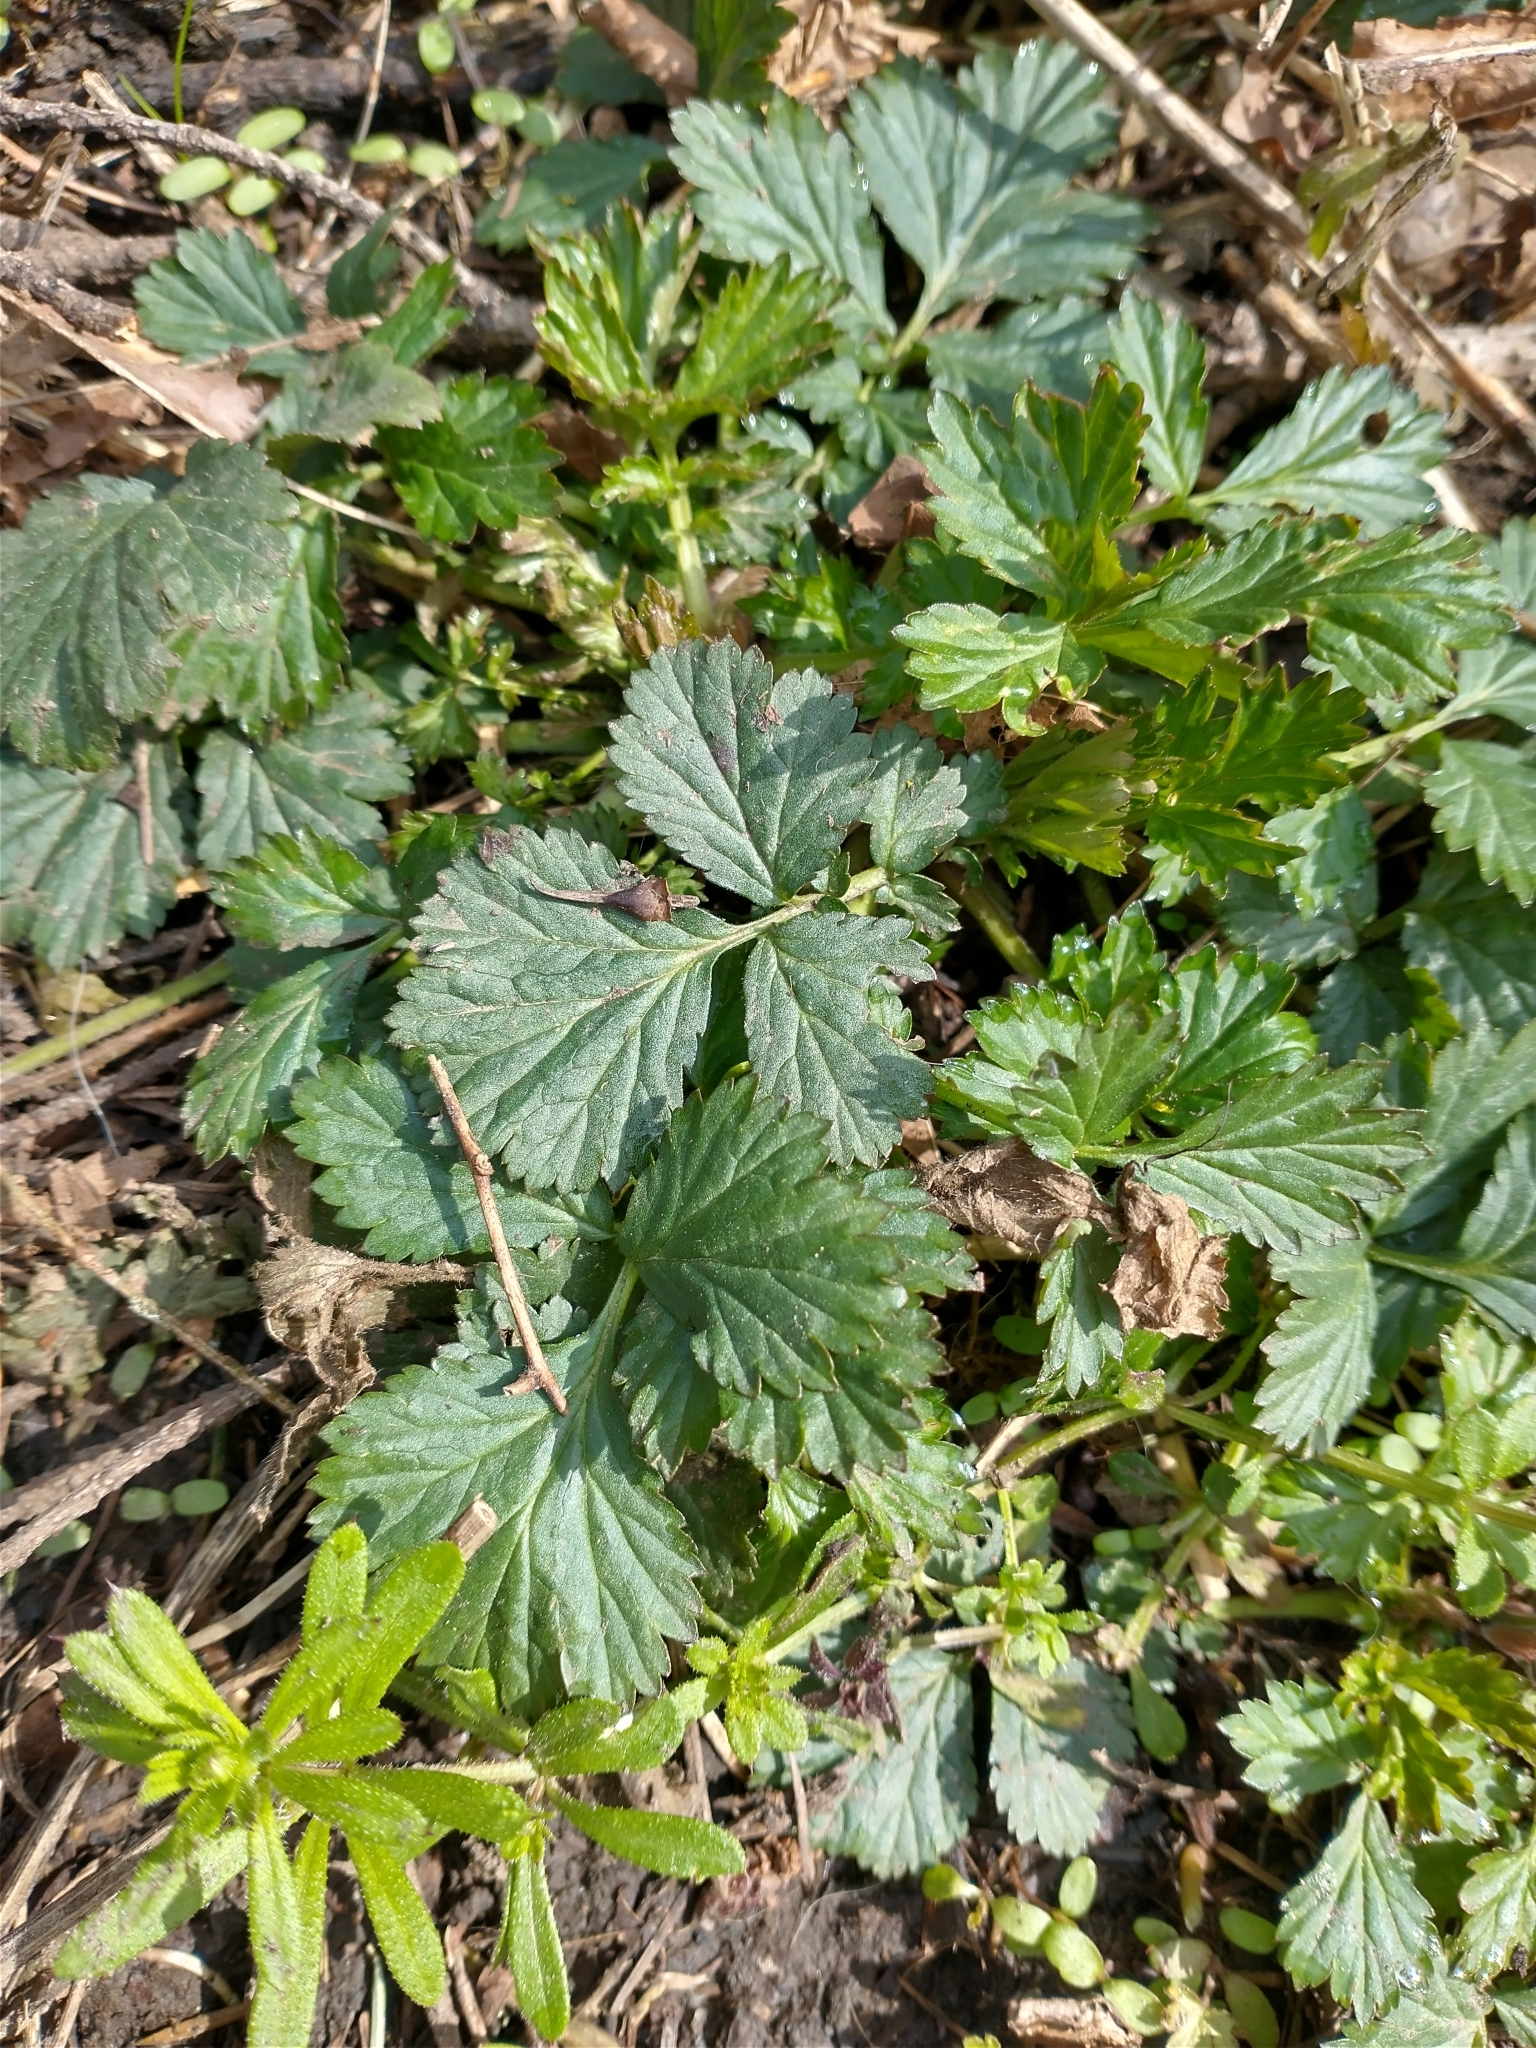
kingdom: Plantae
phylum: Tracheophyta
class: Magnoliopsida
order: Rosales
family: Rosaceae
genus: Geum
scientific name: Geum urbanum
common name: Wood avens
